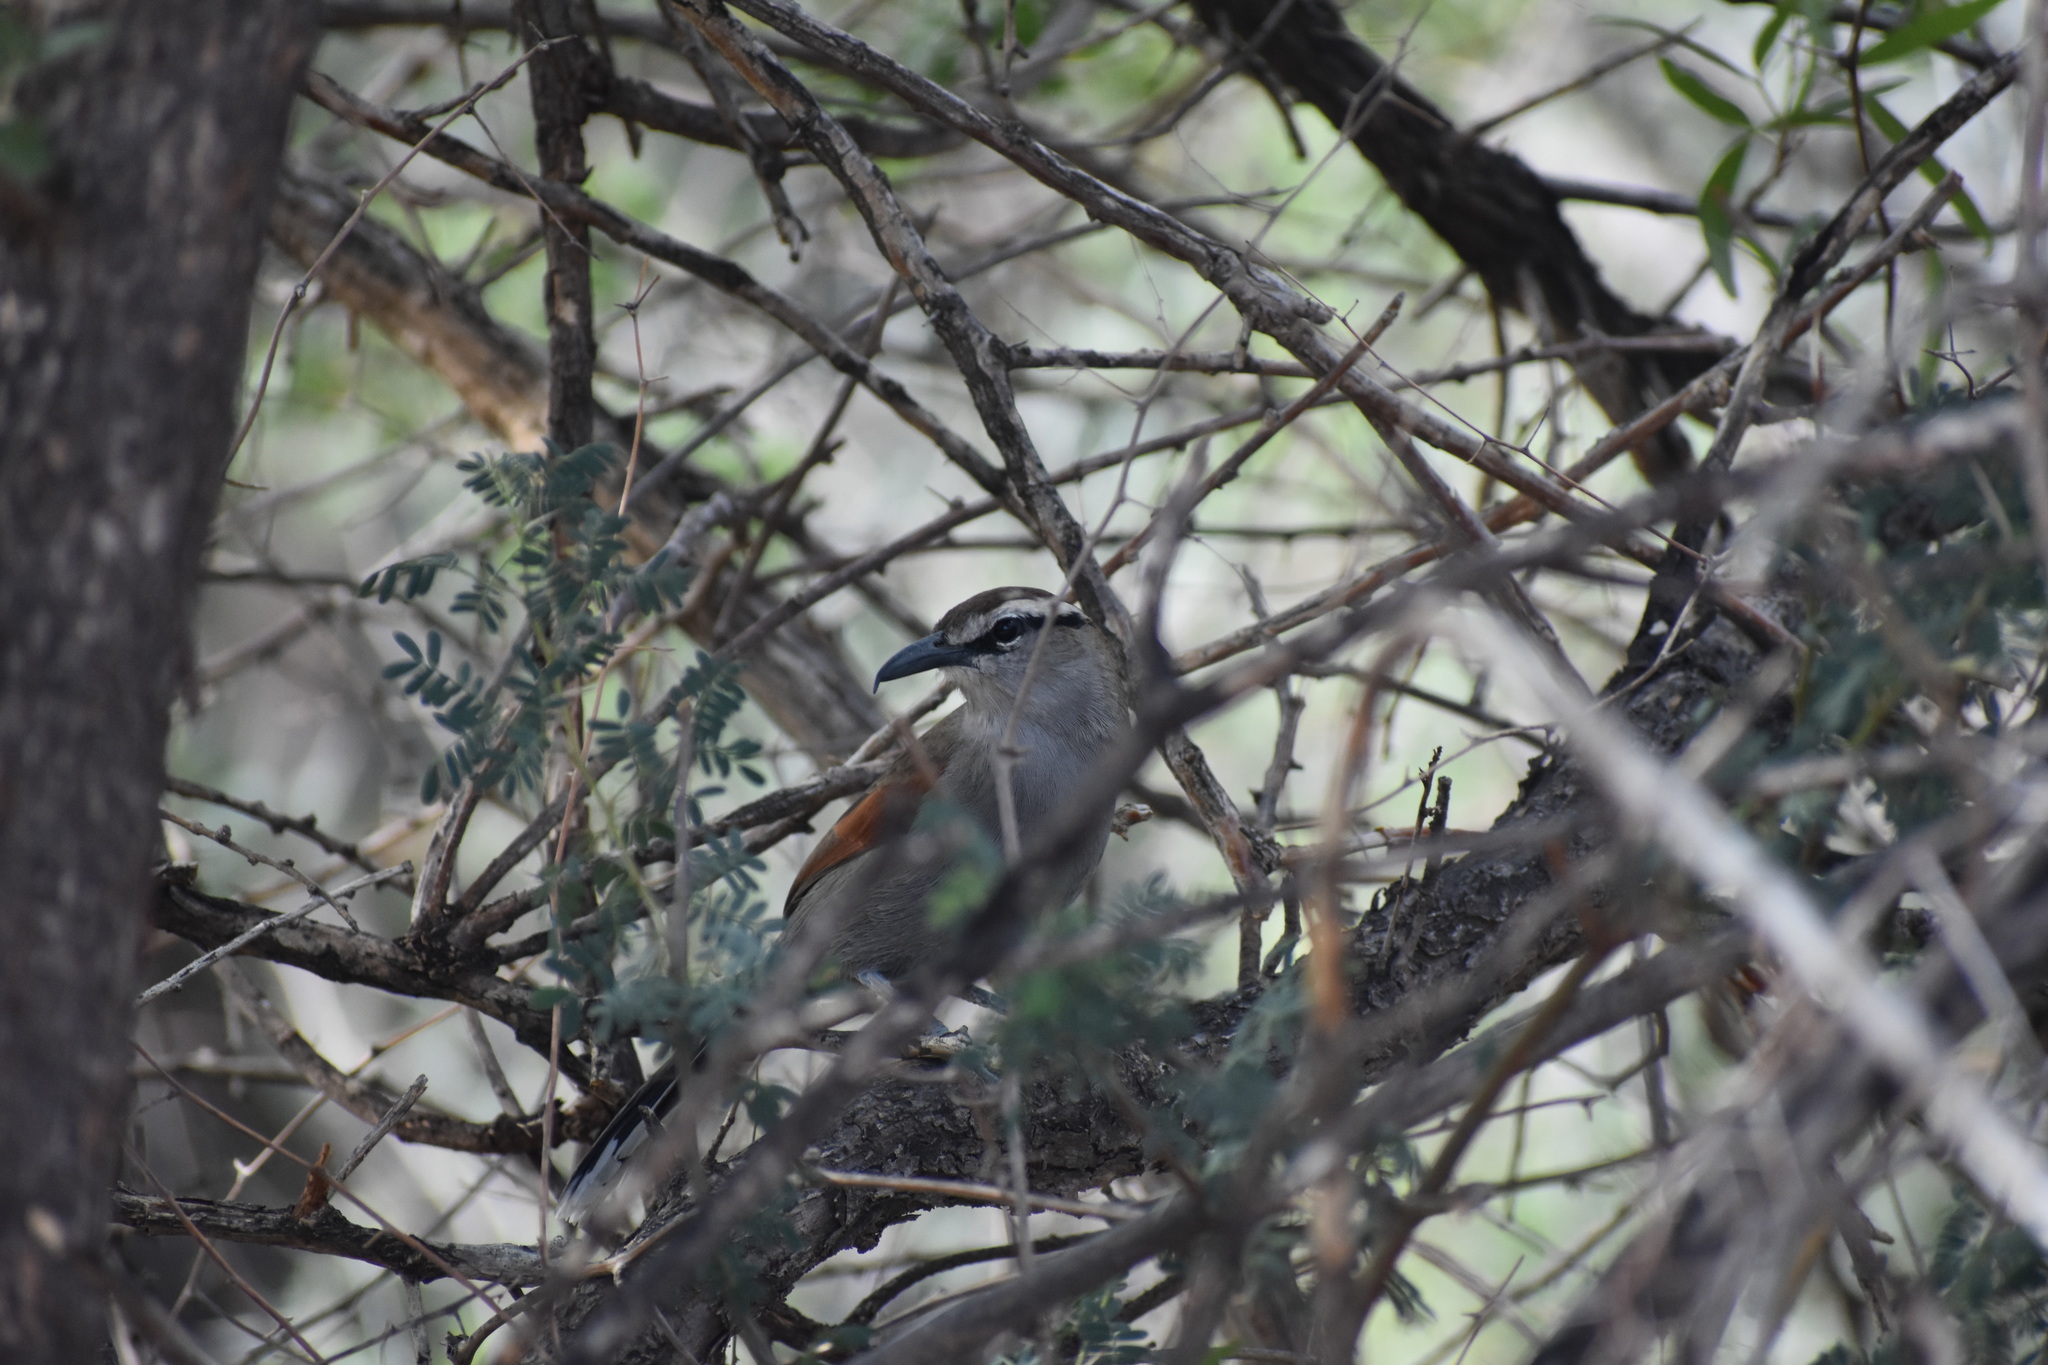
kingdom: Animalia
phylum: Chordata
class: Aves
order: Passeriformes
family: Malaconotidae
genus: Tchagra
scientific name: Tchagra tchagra
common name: Southern tchagra
